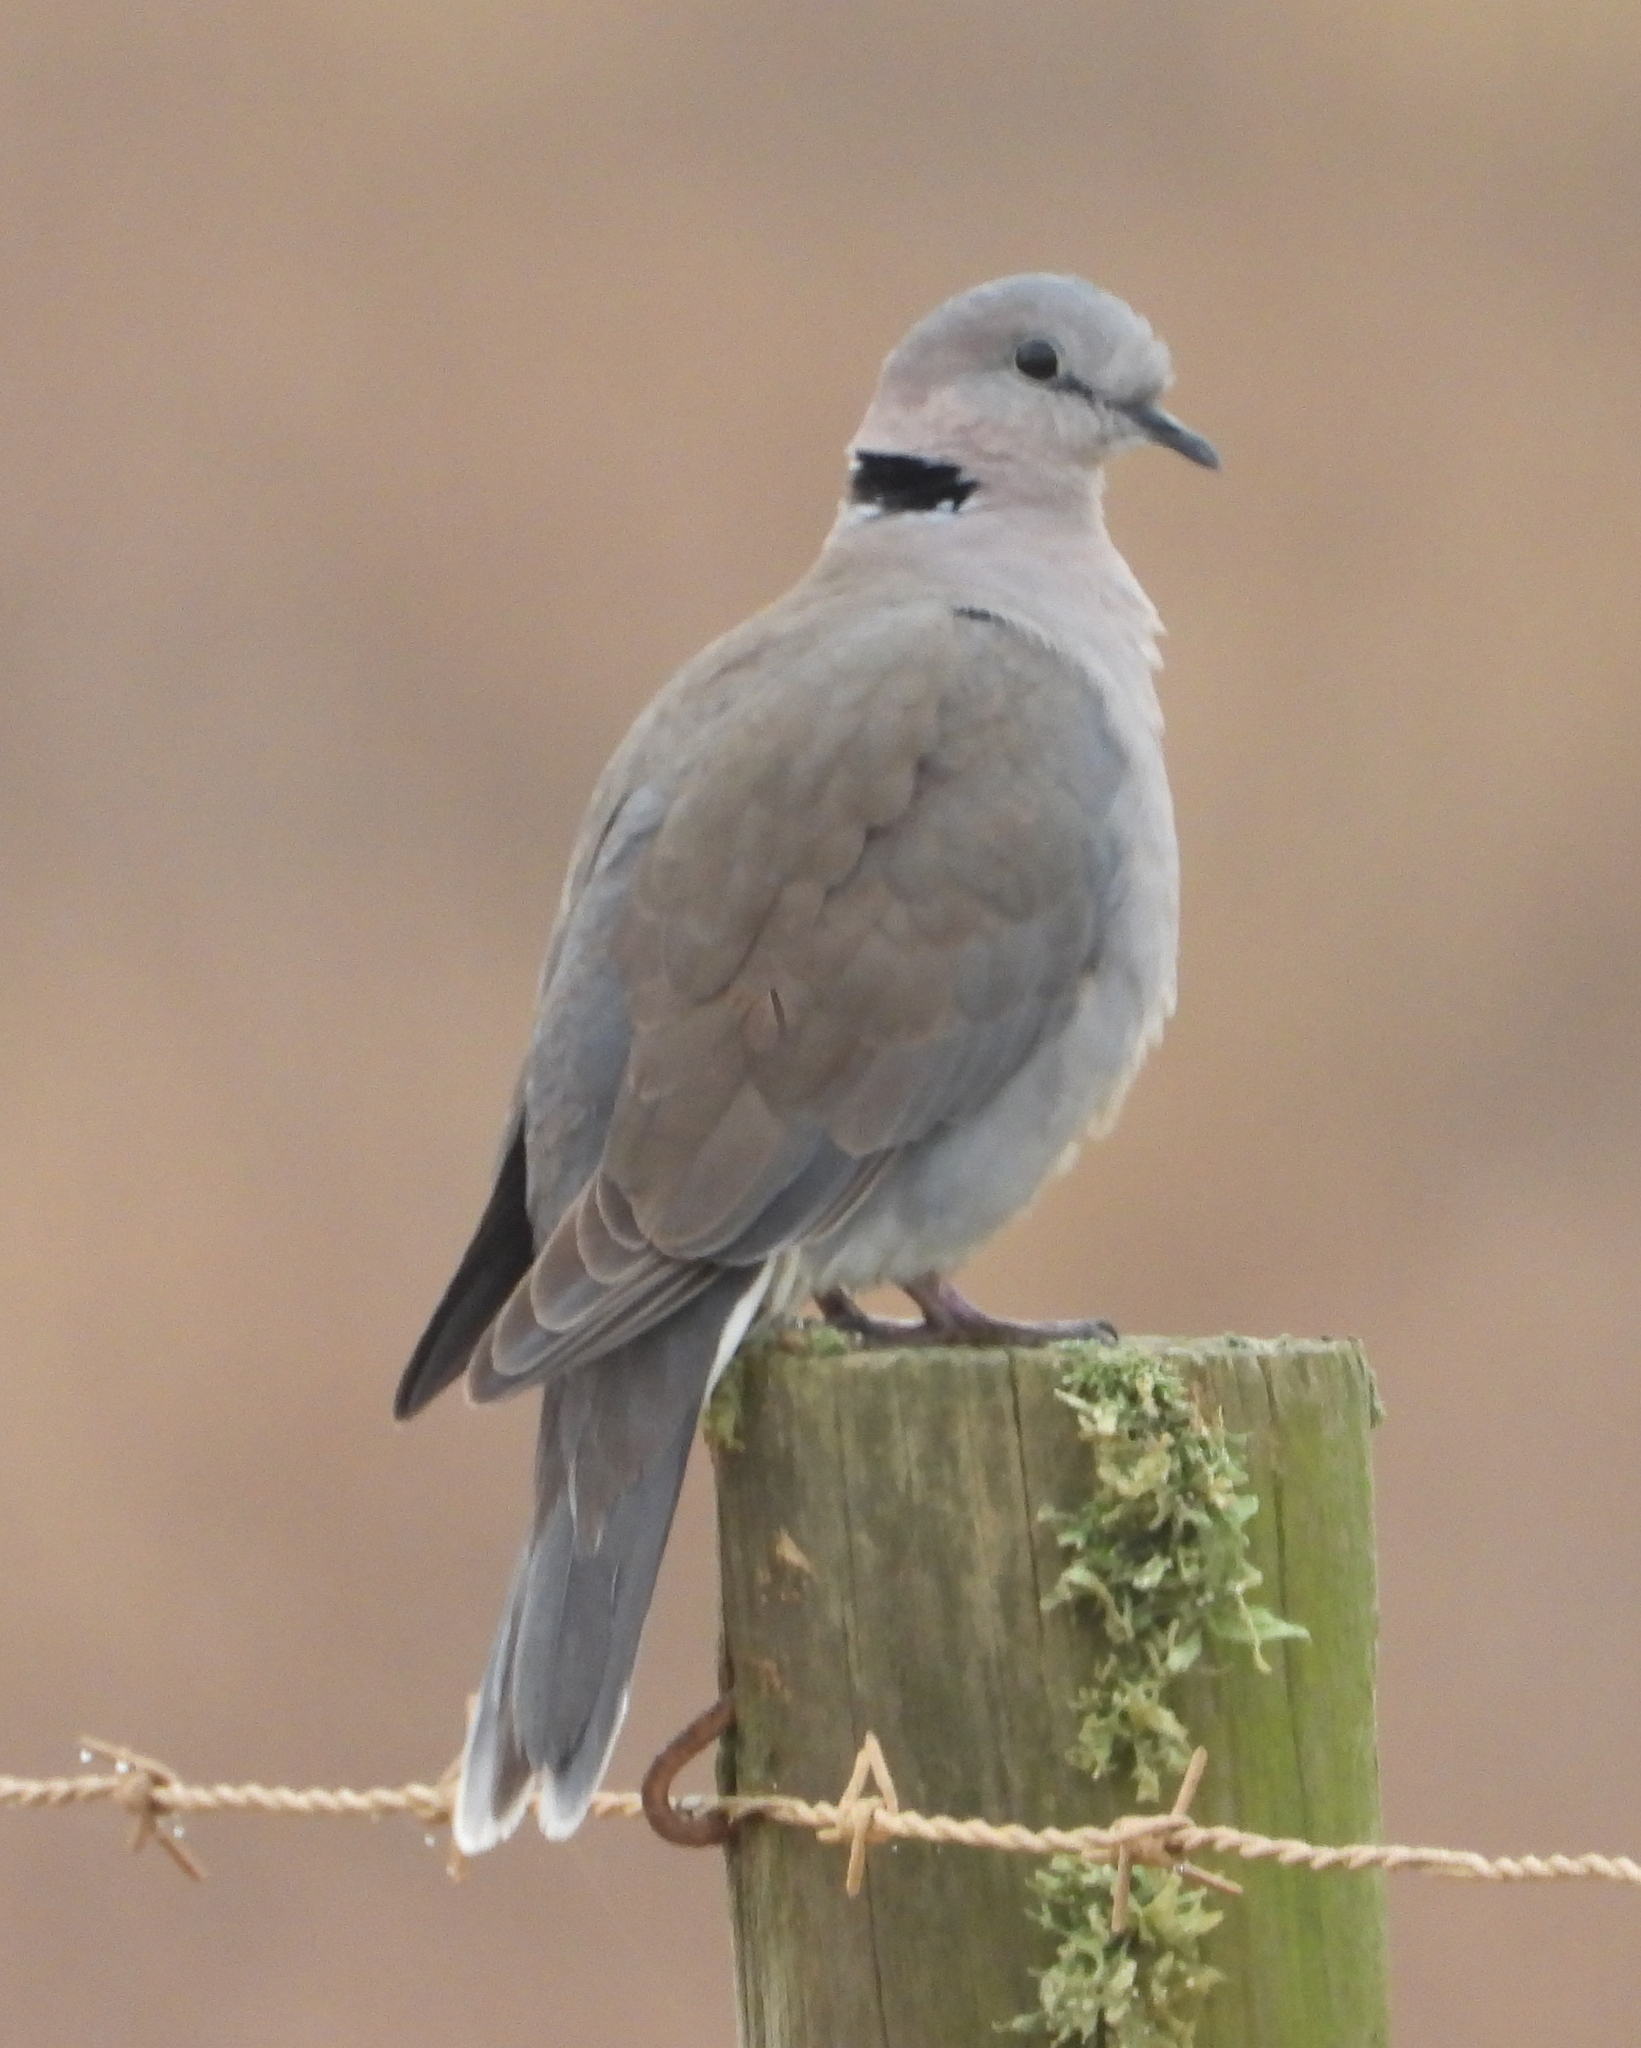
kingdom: Animalia
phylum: Chordata
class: Aves
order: Columbiformes
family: Columbidae
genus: Streptopelia
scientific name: Streptopelia capicola
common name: Ring-necked dove
